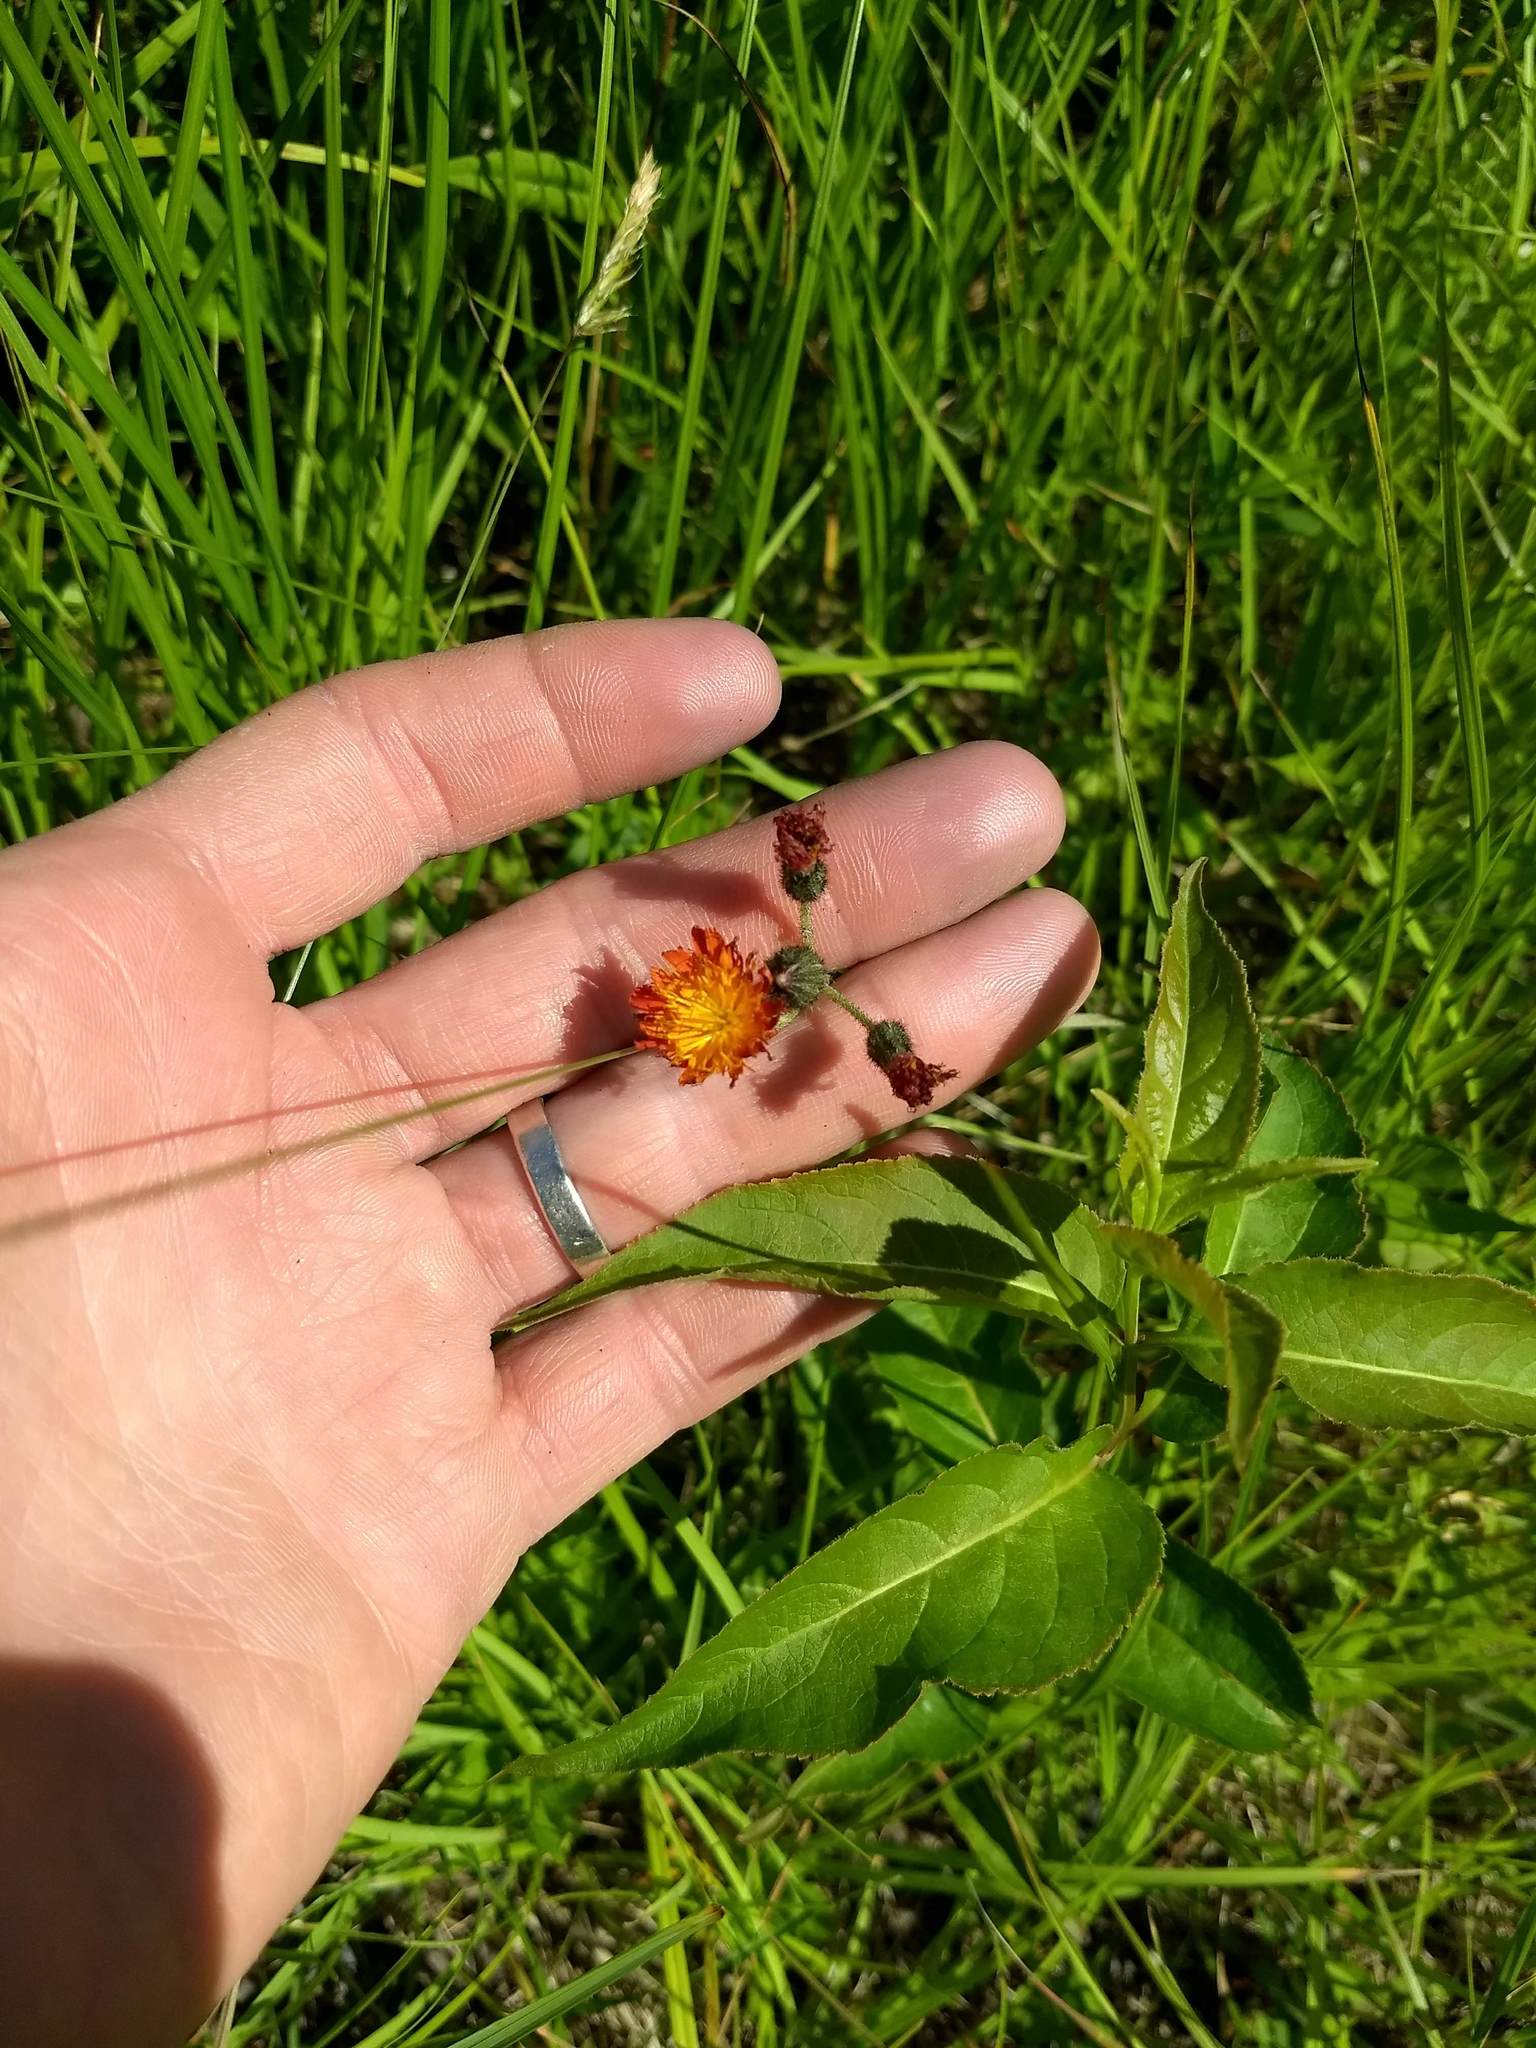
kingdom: Plantae
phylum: Tracheophyta
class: Magnoliopsida
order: Asterales
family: Asteraceae
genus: Pilosella
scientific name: Pilosella aurantiaca
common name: Fox-and-cubs
